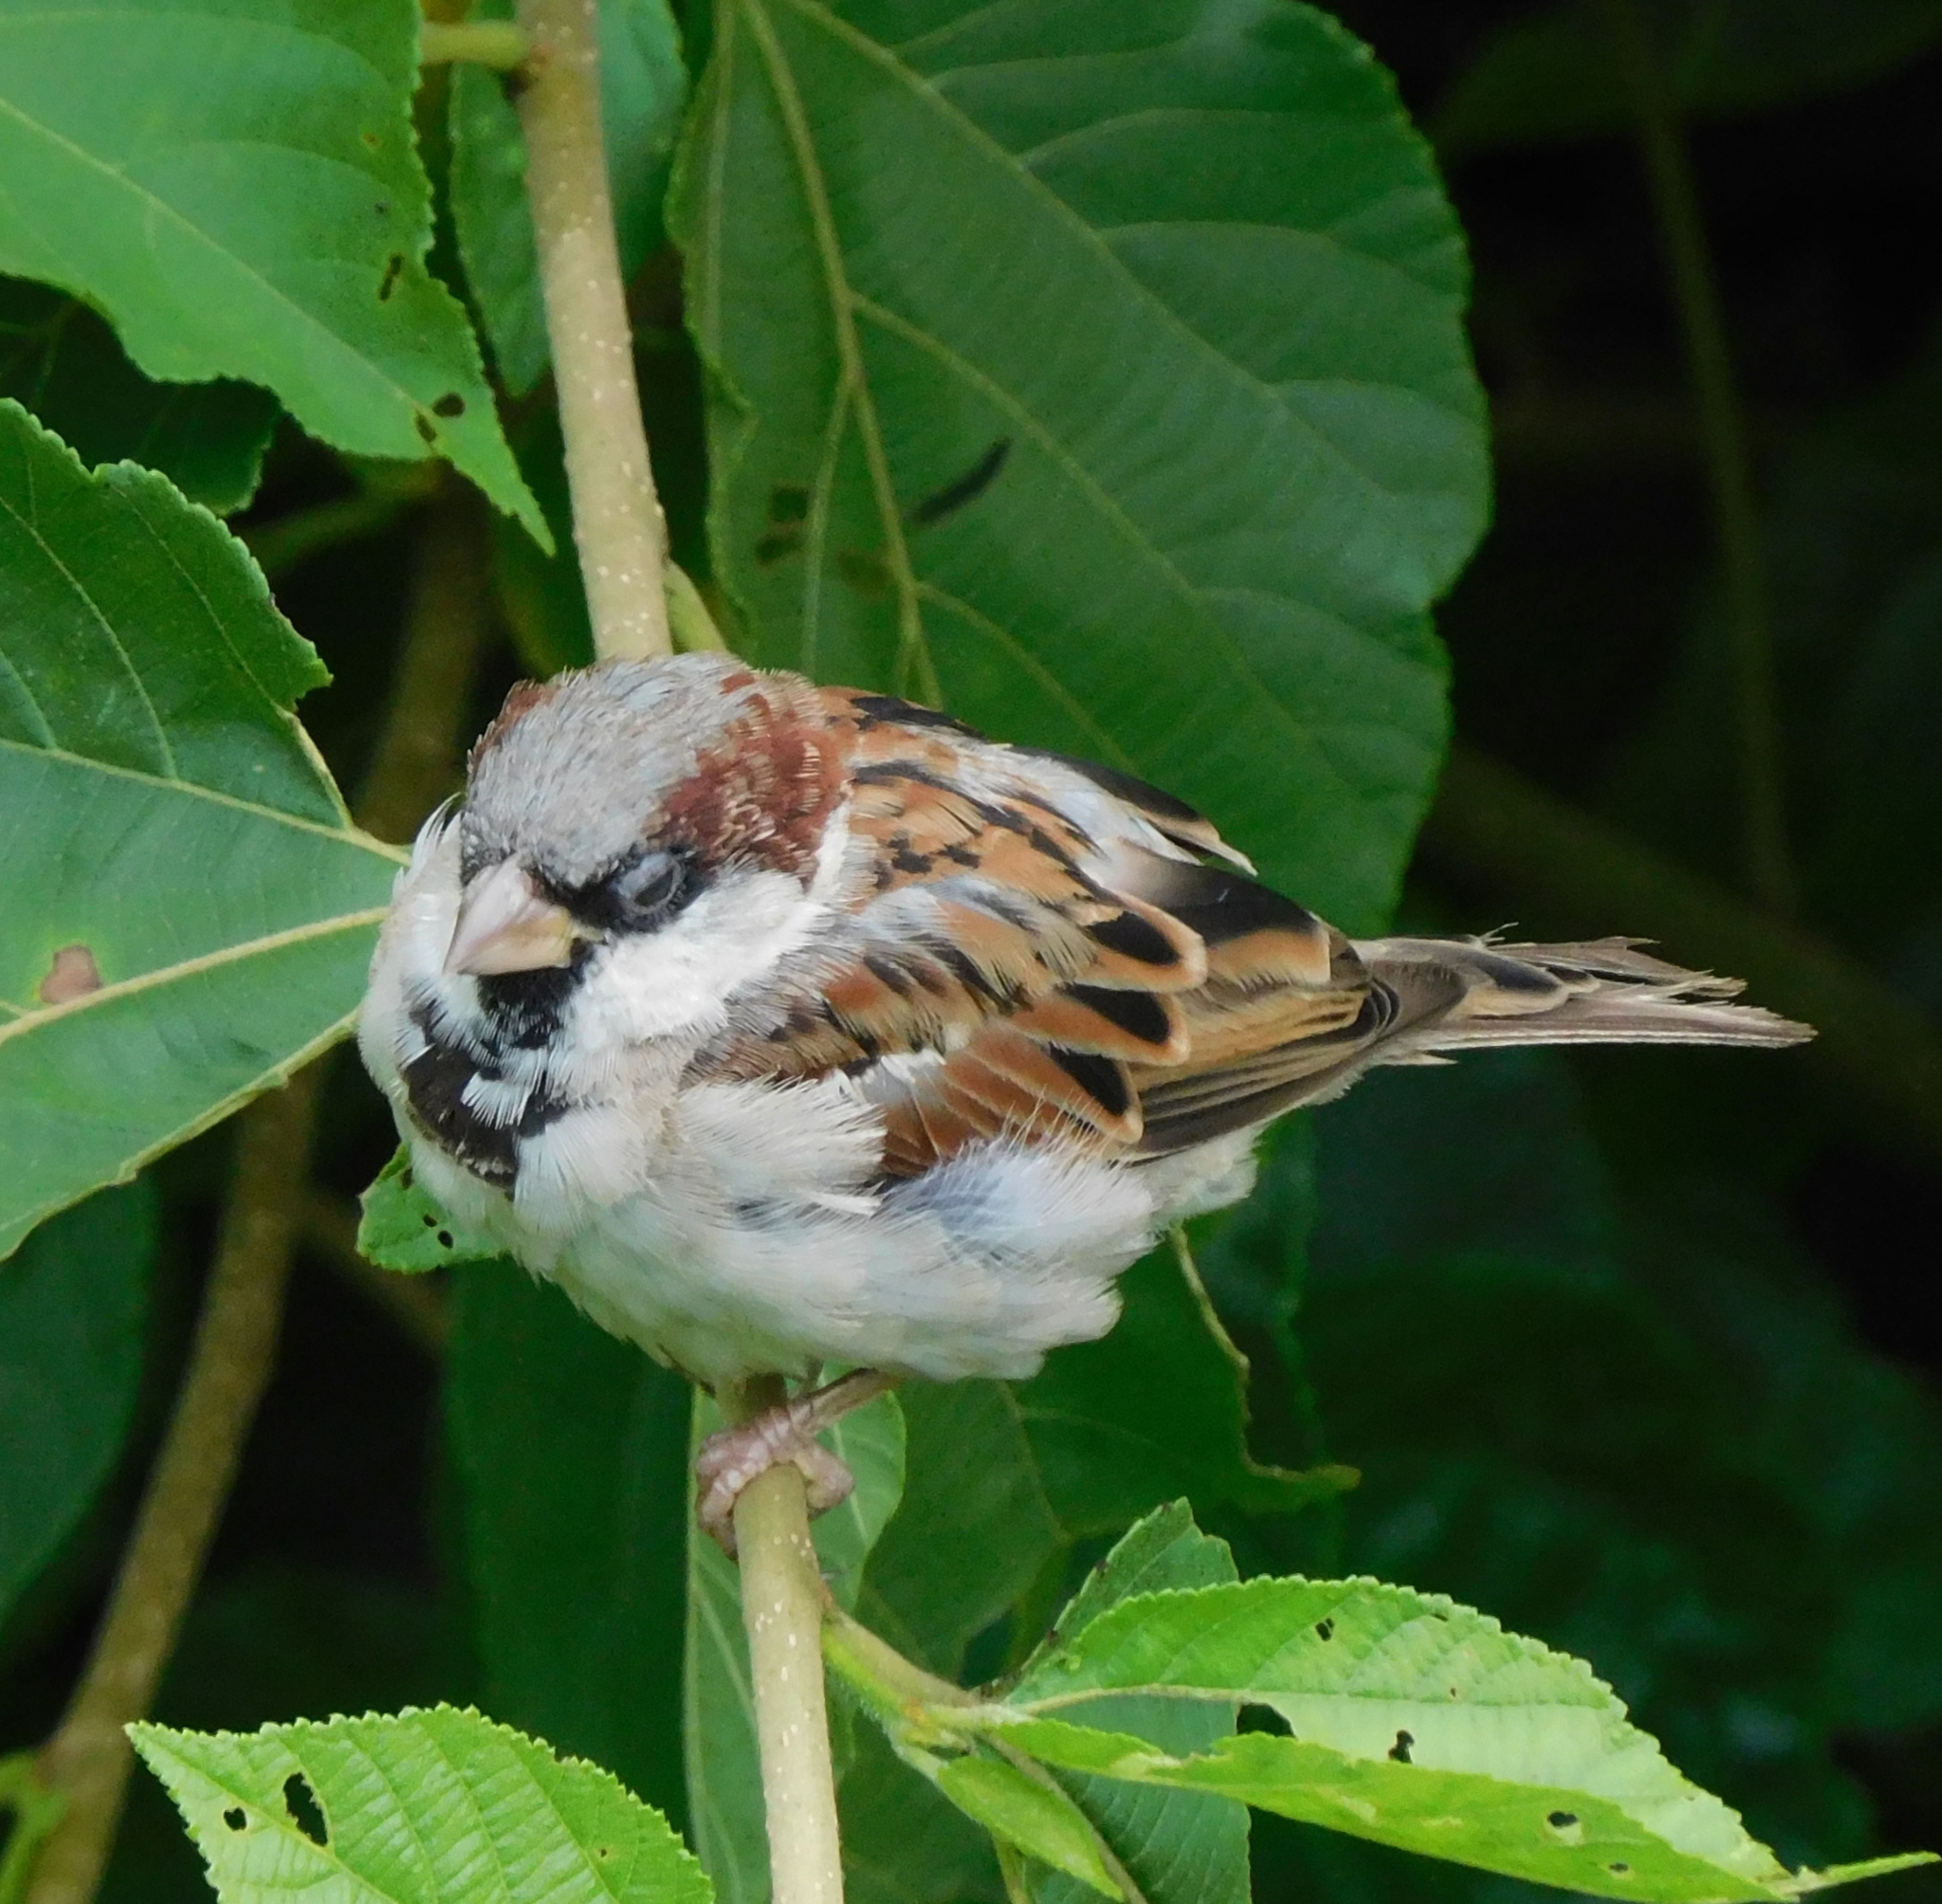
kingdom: Animalia
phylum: Chordata
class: Aves
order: Passeriformes
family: Passeridae
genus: Passer
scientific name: Passer domesticus
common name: House sparrow
